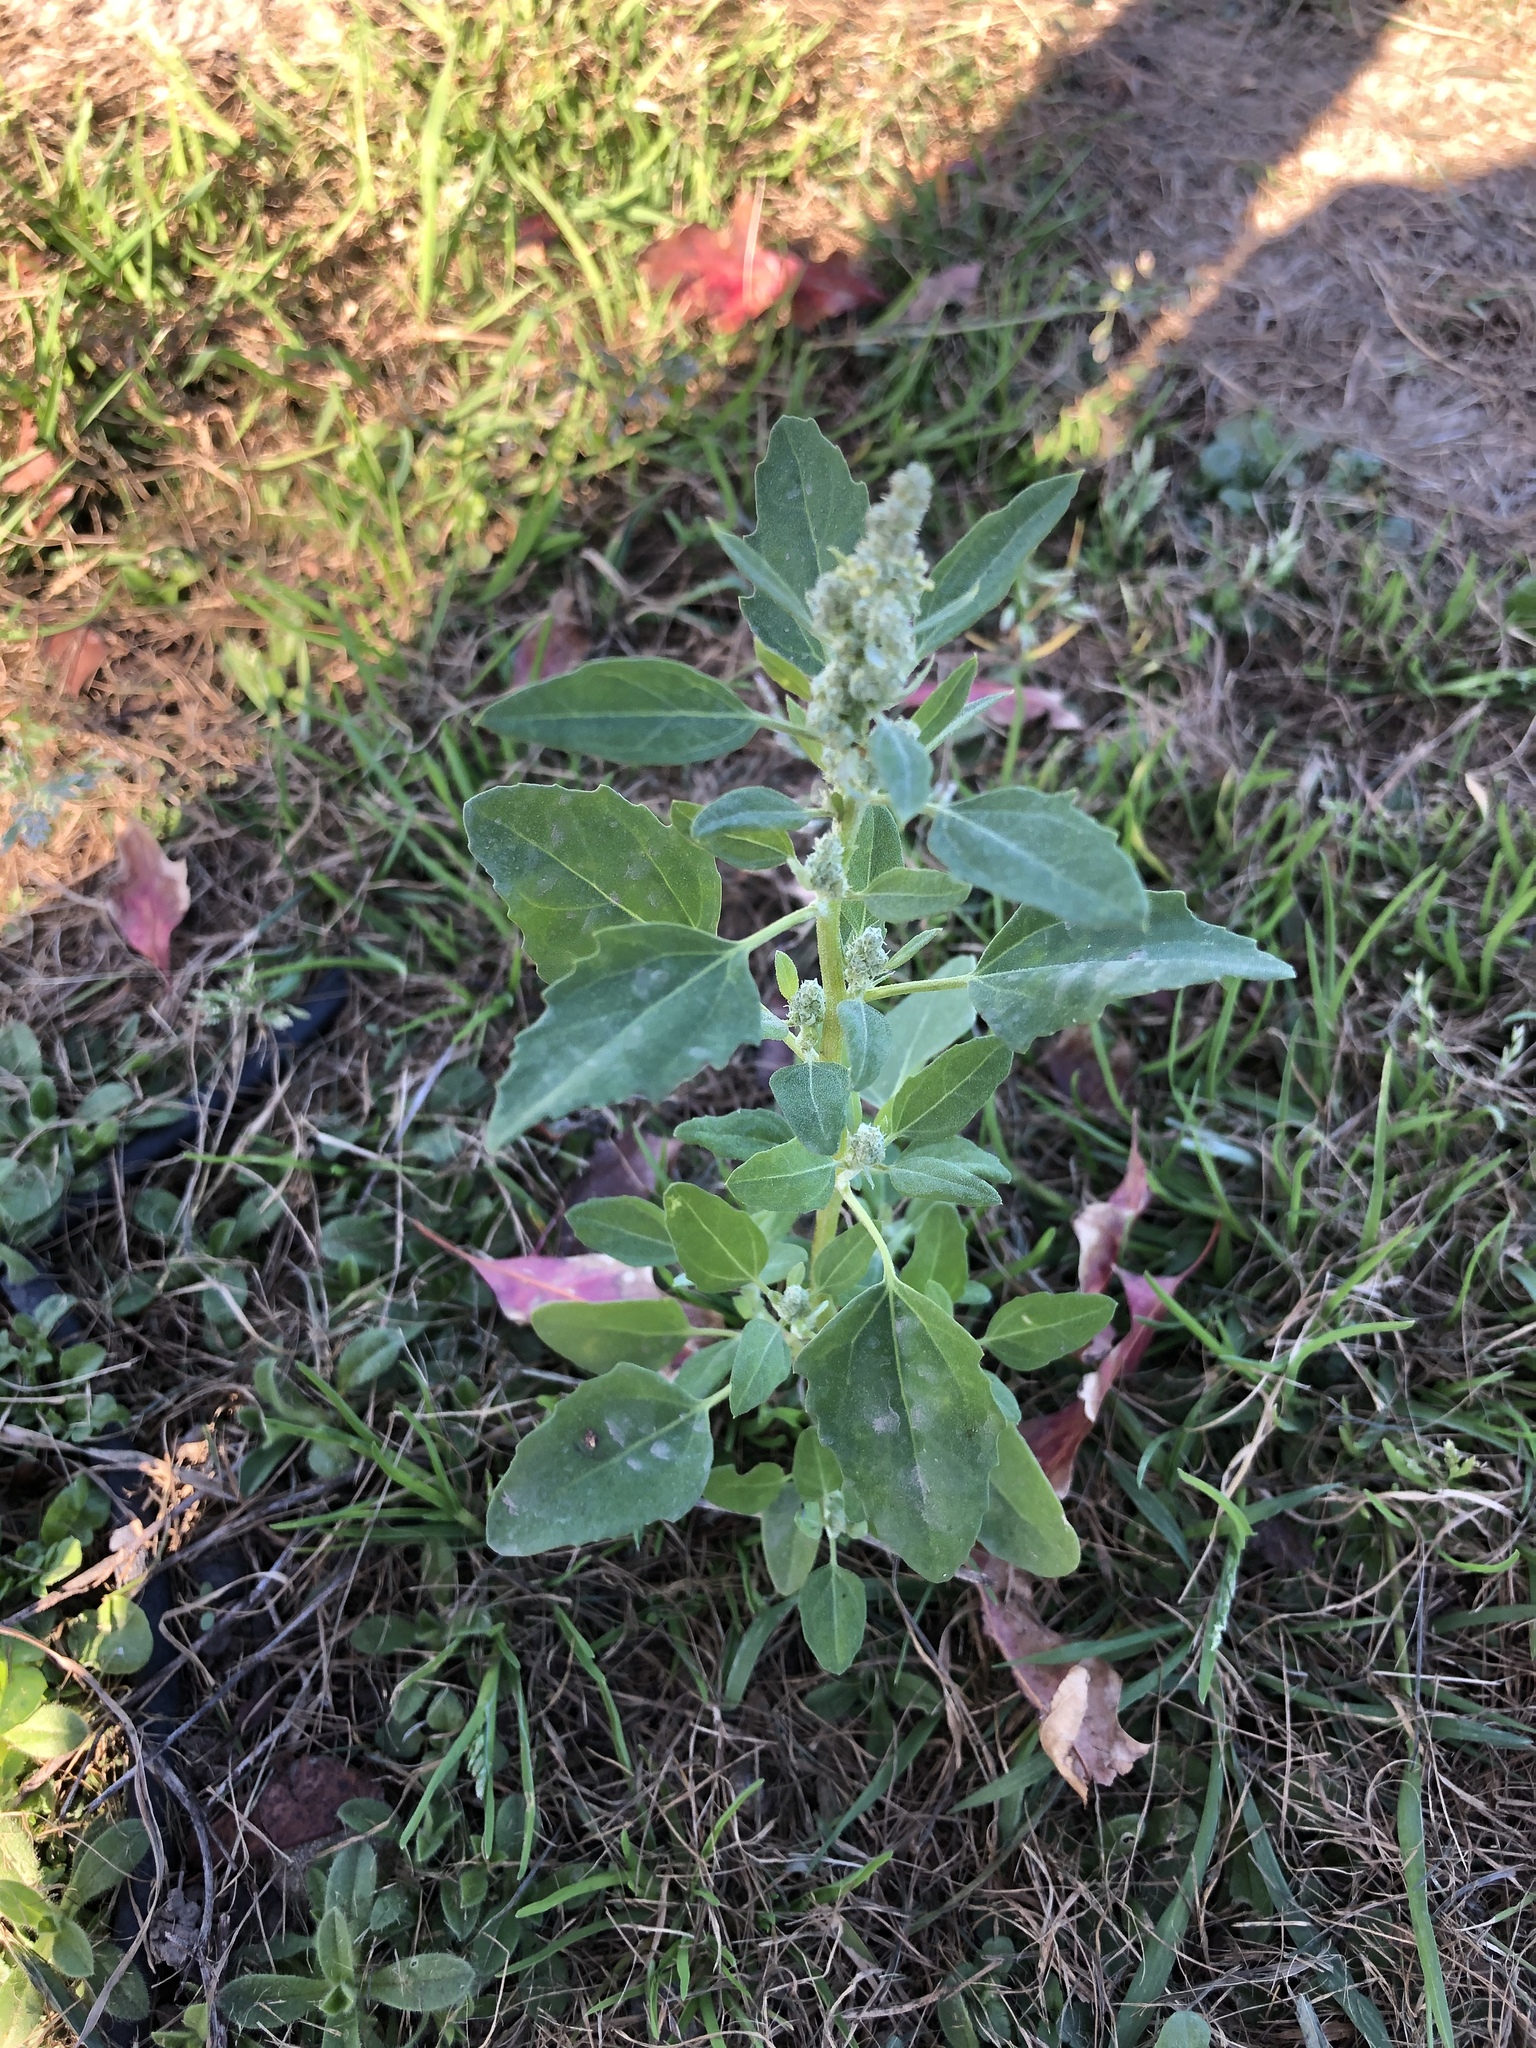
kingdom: Plantae
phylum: Tracheophyta
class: Magnoliopsida
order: Caryophyllales
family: Amaranthaceae
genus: Chenopodium
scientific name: Chenopodium album
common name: Fat-hen
